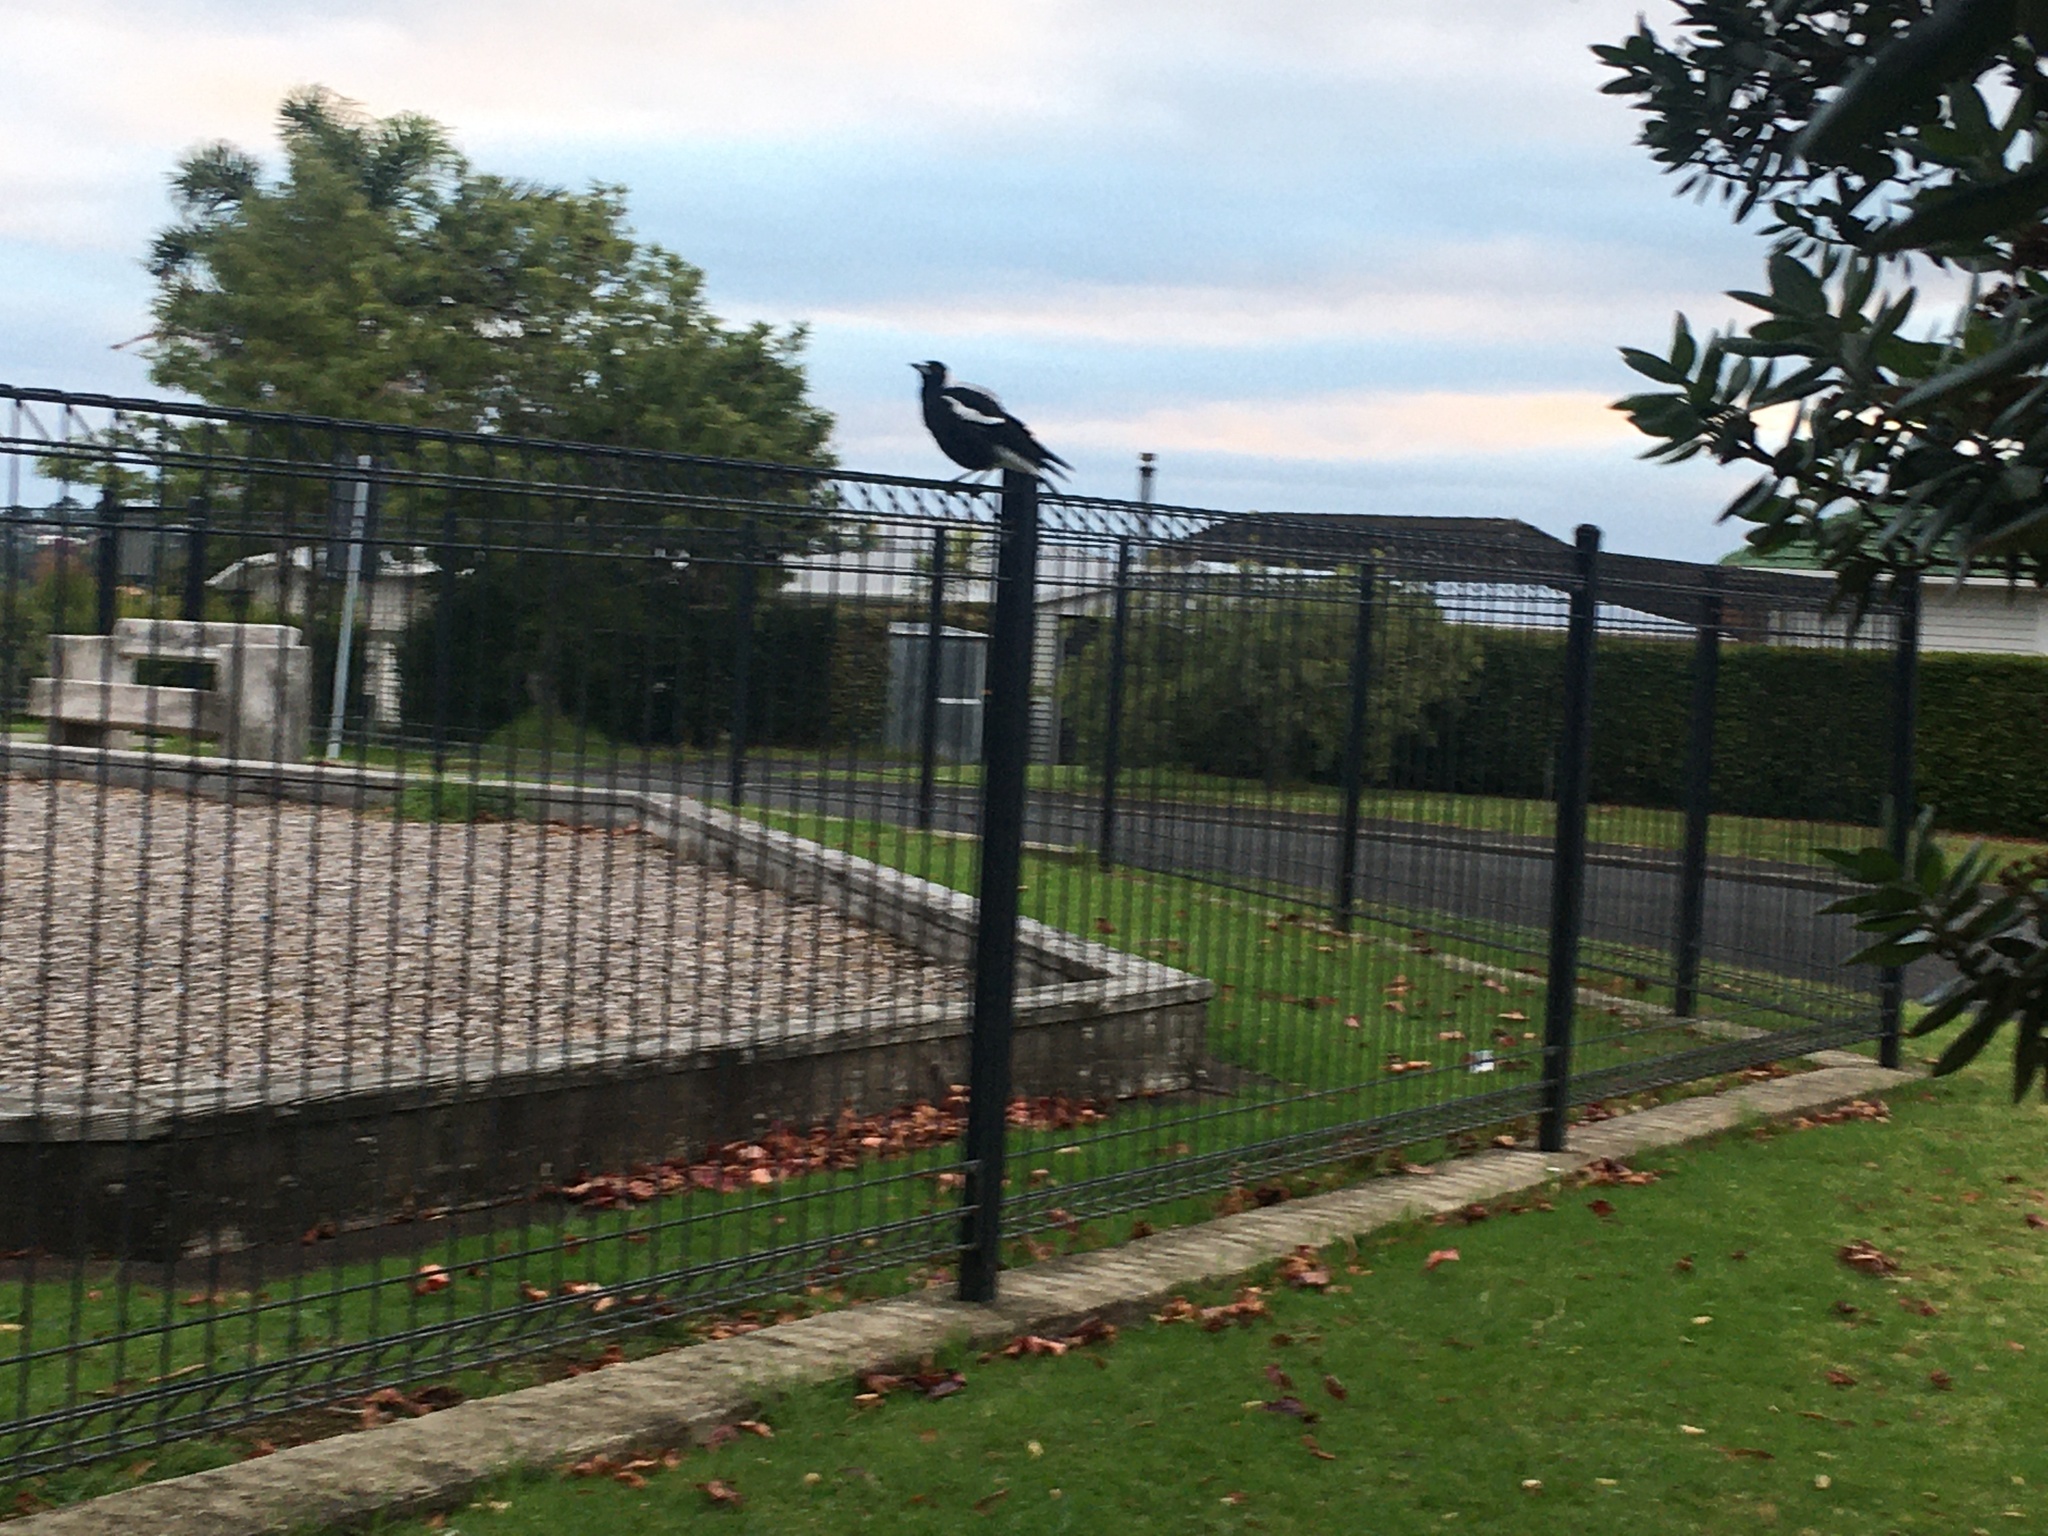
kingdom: Animalia
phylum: Chordata
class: Aves
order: Passeriformes
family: Cracticidae
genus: Gymnorhina
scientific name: Gymnorhina tibicen
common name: Australian magpie
